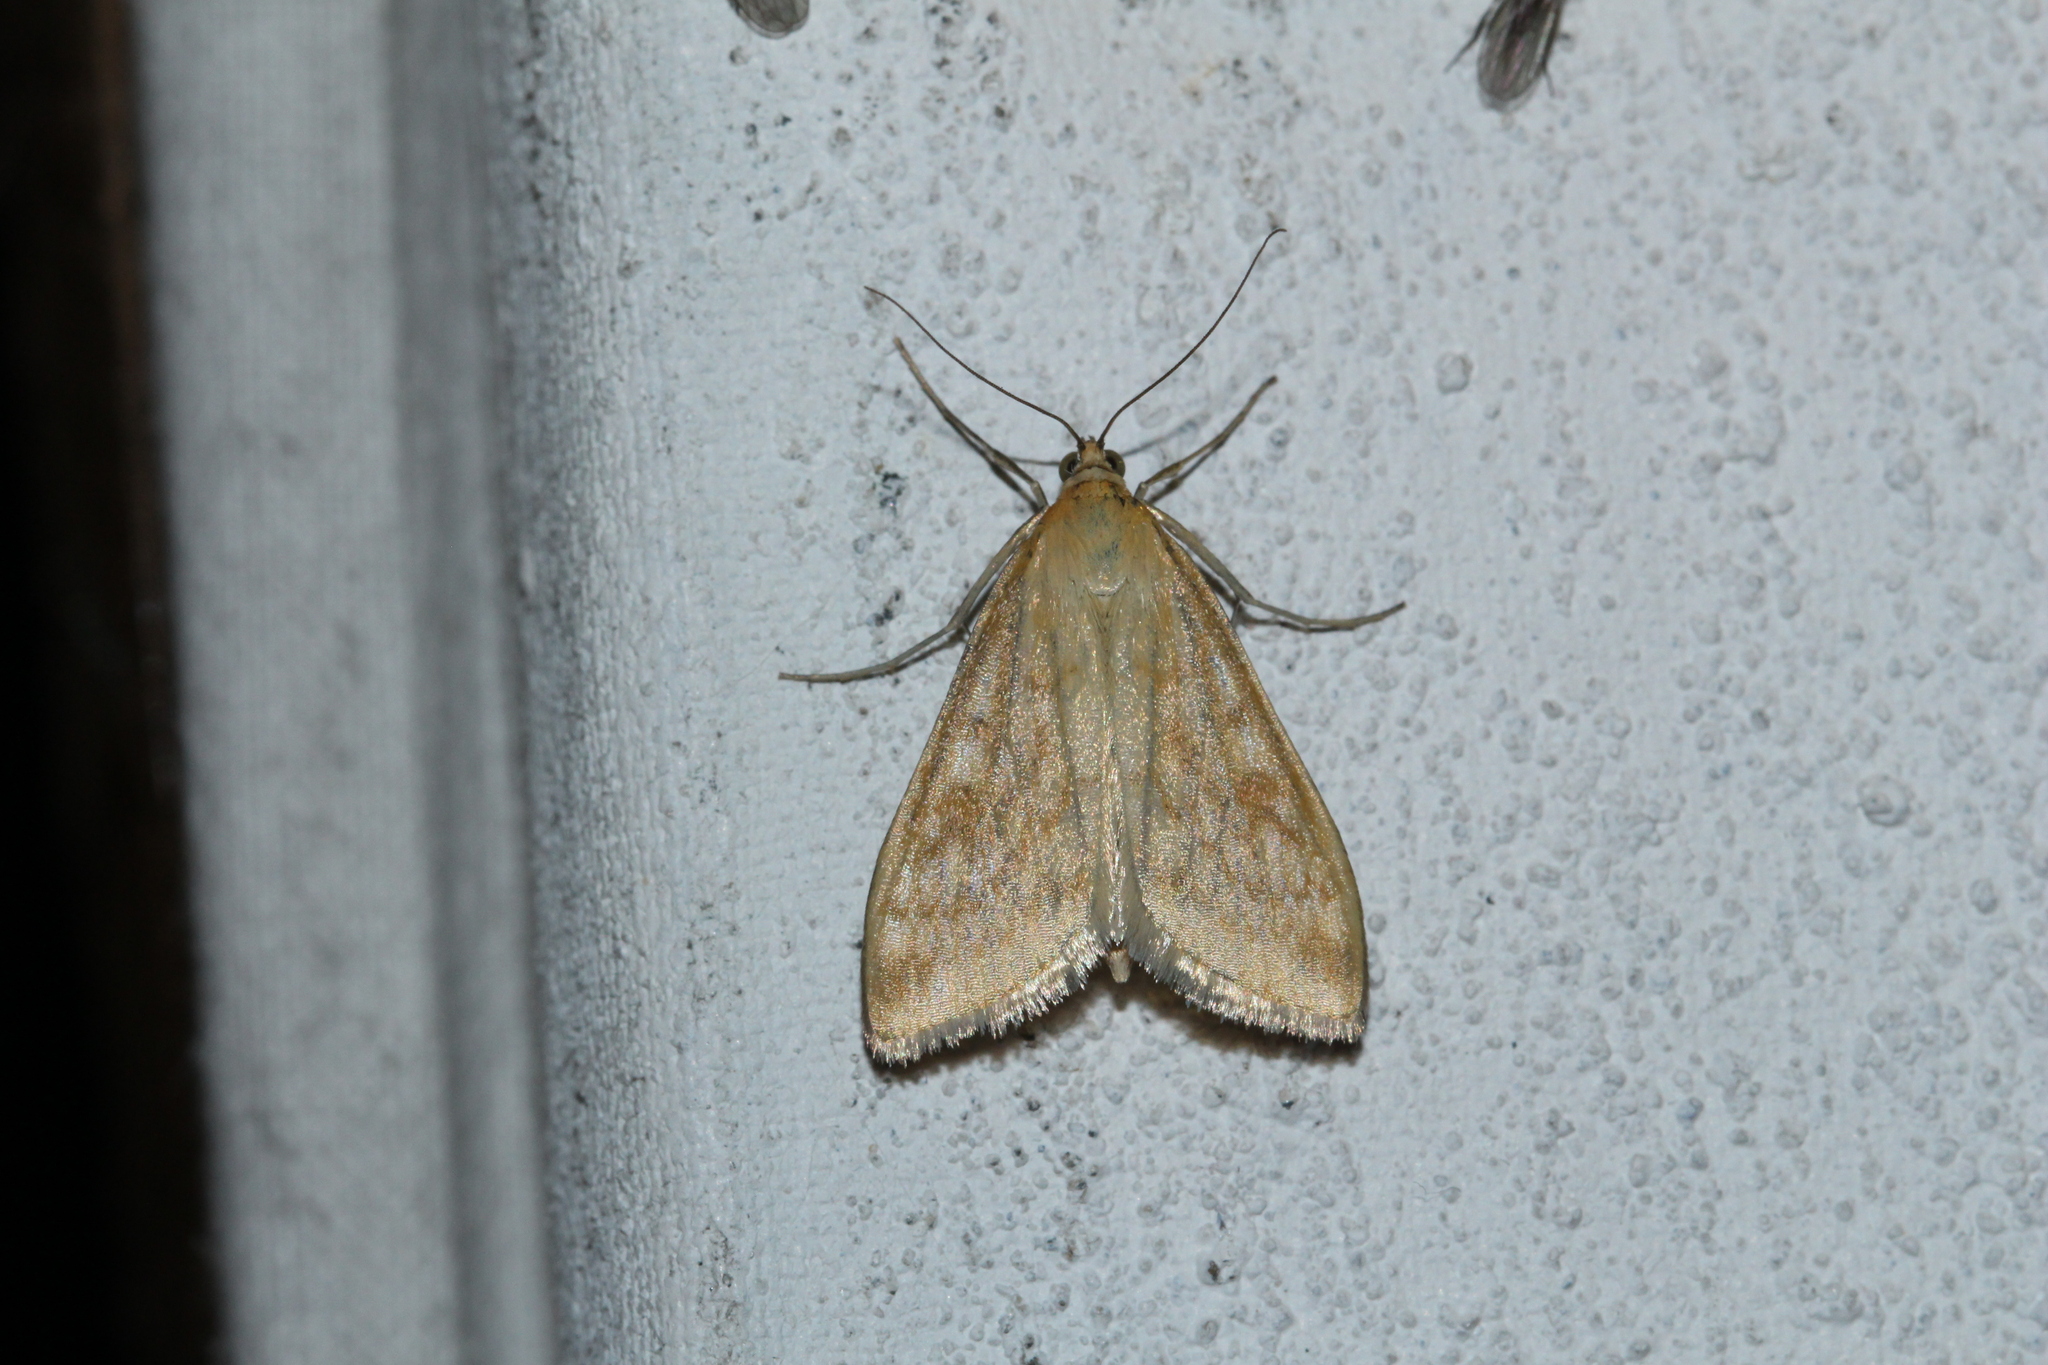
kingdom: Animalia
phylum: Arthropoda
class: Insecta
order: Lepidoptera
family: Crambidae
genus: Sitochroa
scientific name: Sitochroa verticalis
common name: Lesser pearl
